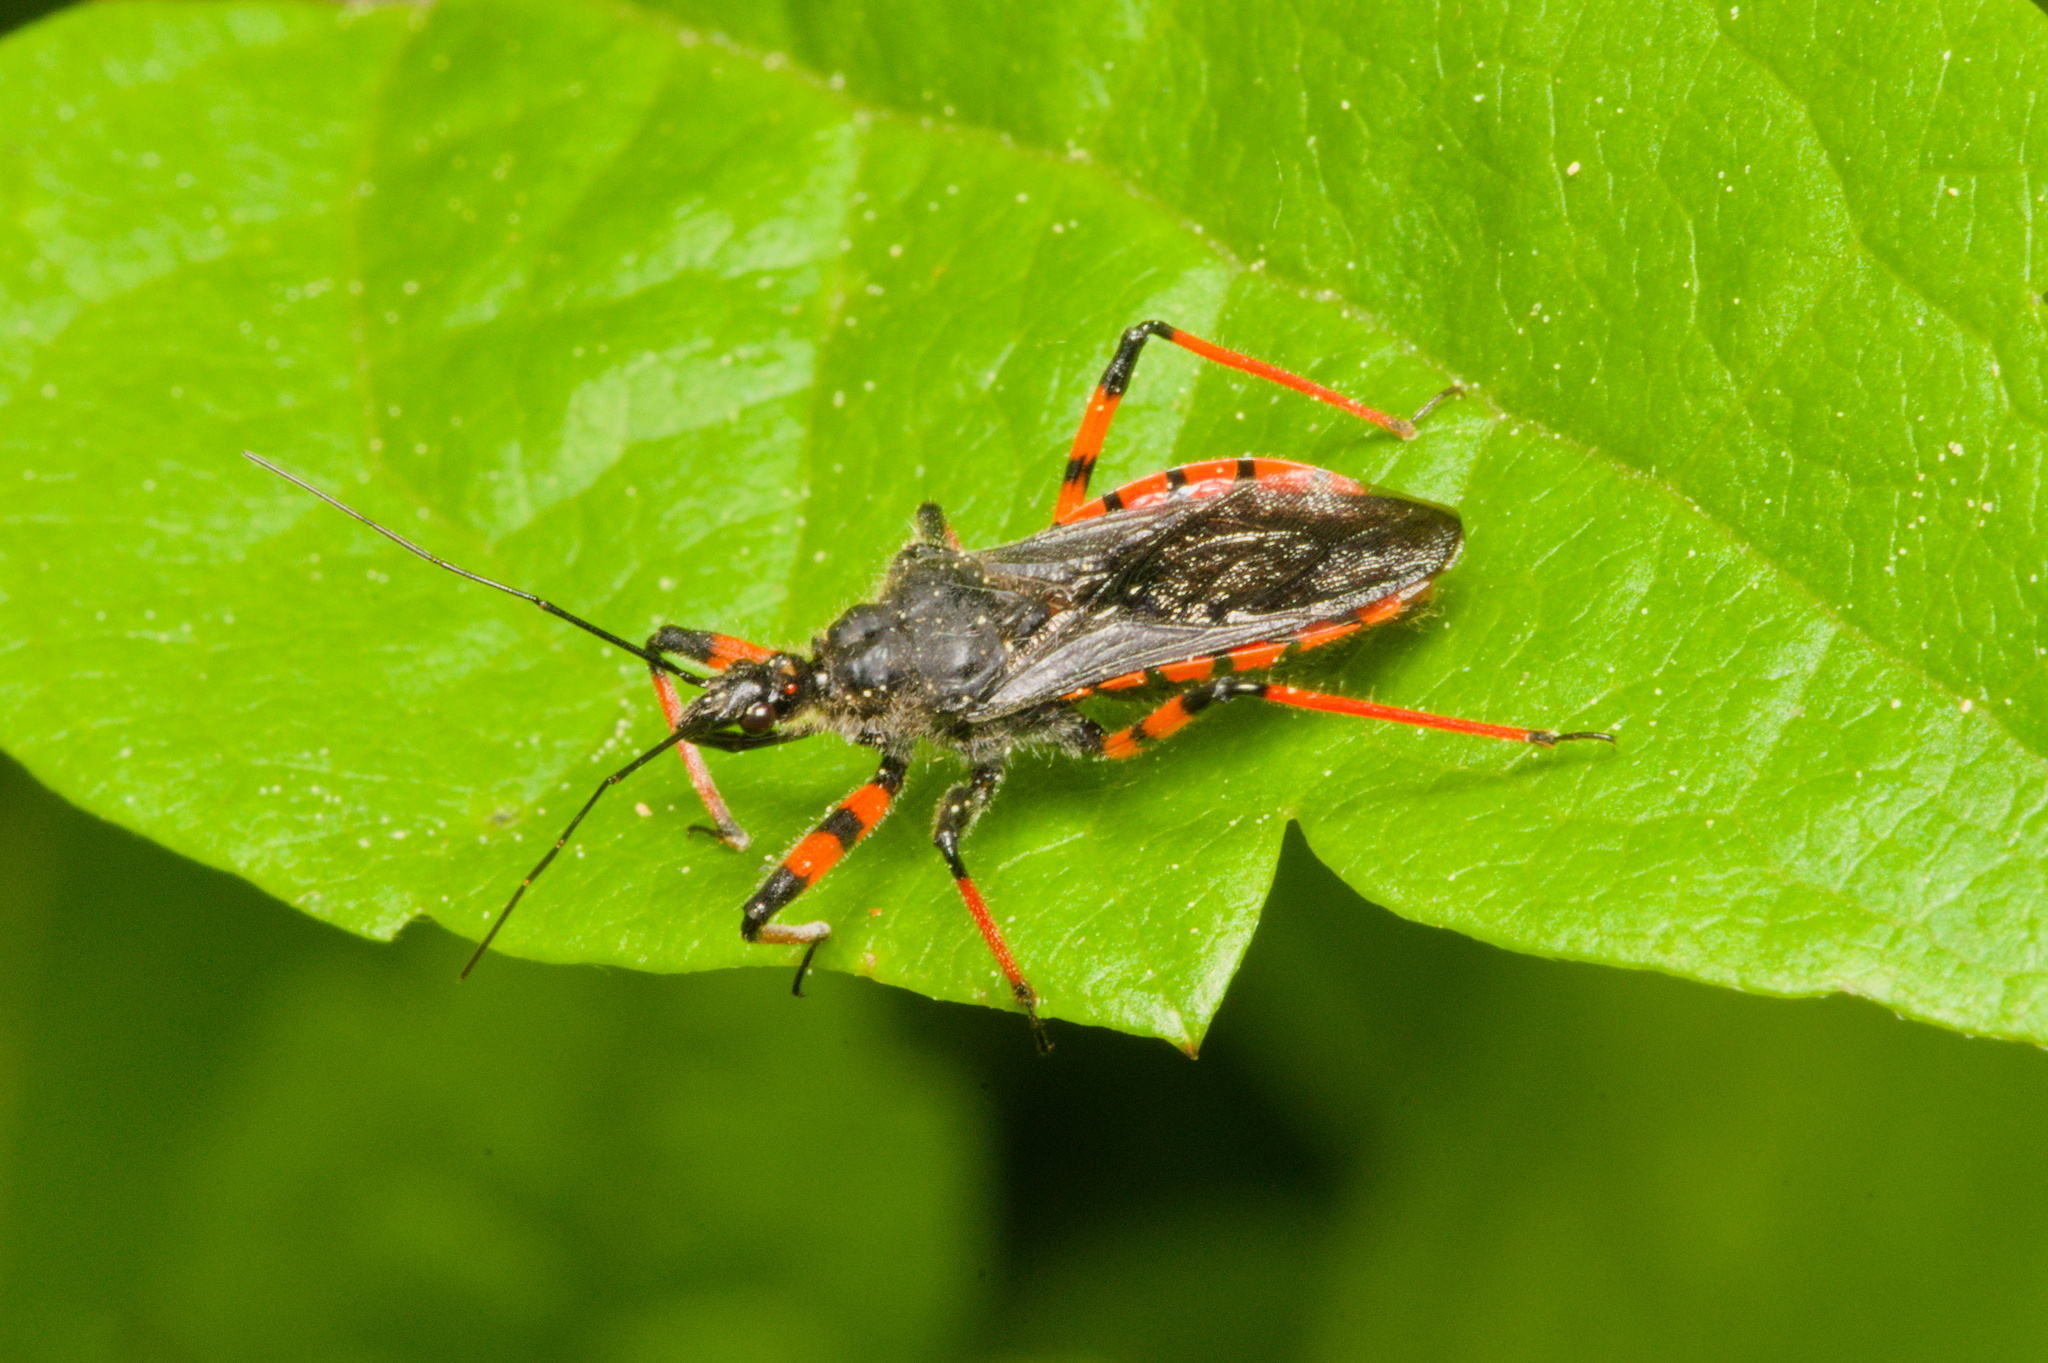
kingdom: Animalia
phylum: Arthropoda
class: Insecta
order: Hemiptera
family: Reduviidae
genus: Rhynocoris
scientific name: Rhynocoris annulatus
